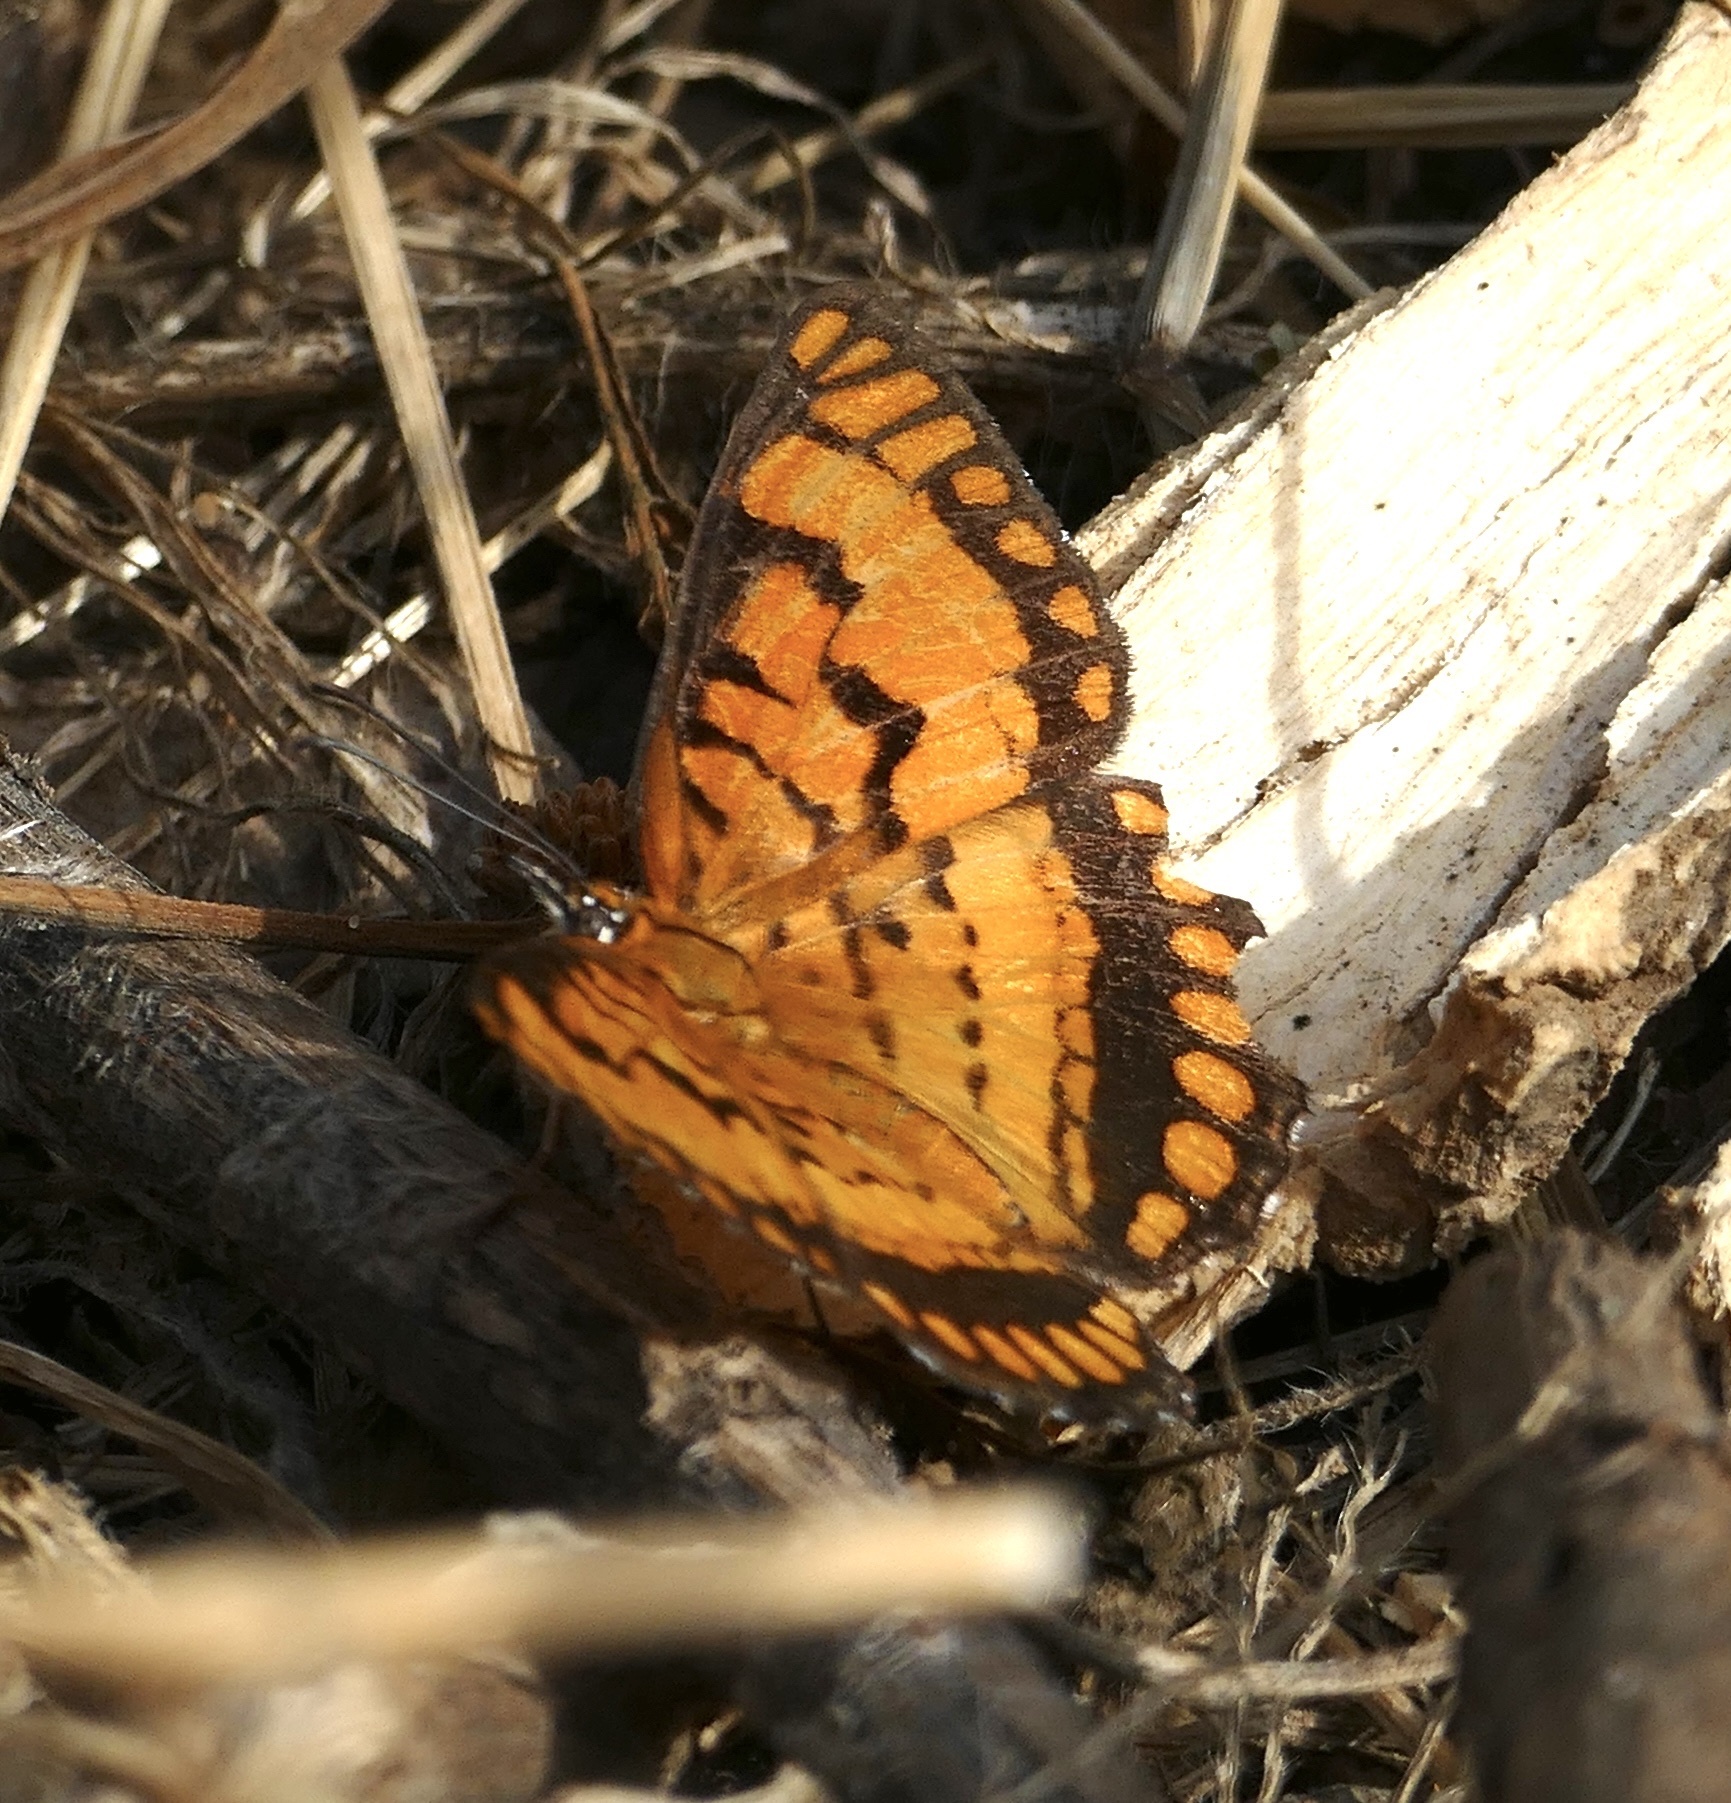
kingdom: Animalia
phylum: Arthropoda
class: Insecta
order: Lepidoptera
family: Nymphalidae
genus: Byblia
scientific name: Byblia ilithyia
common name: Spotted joker
